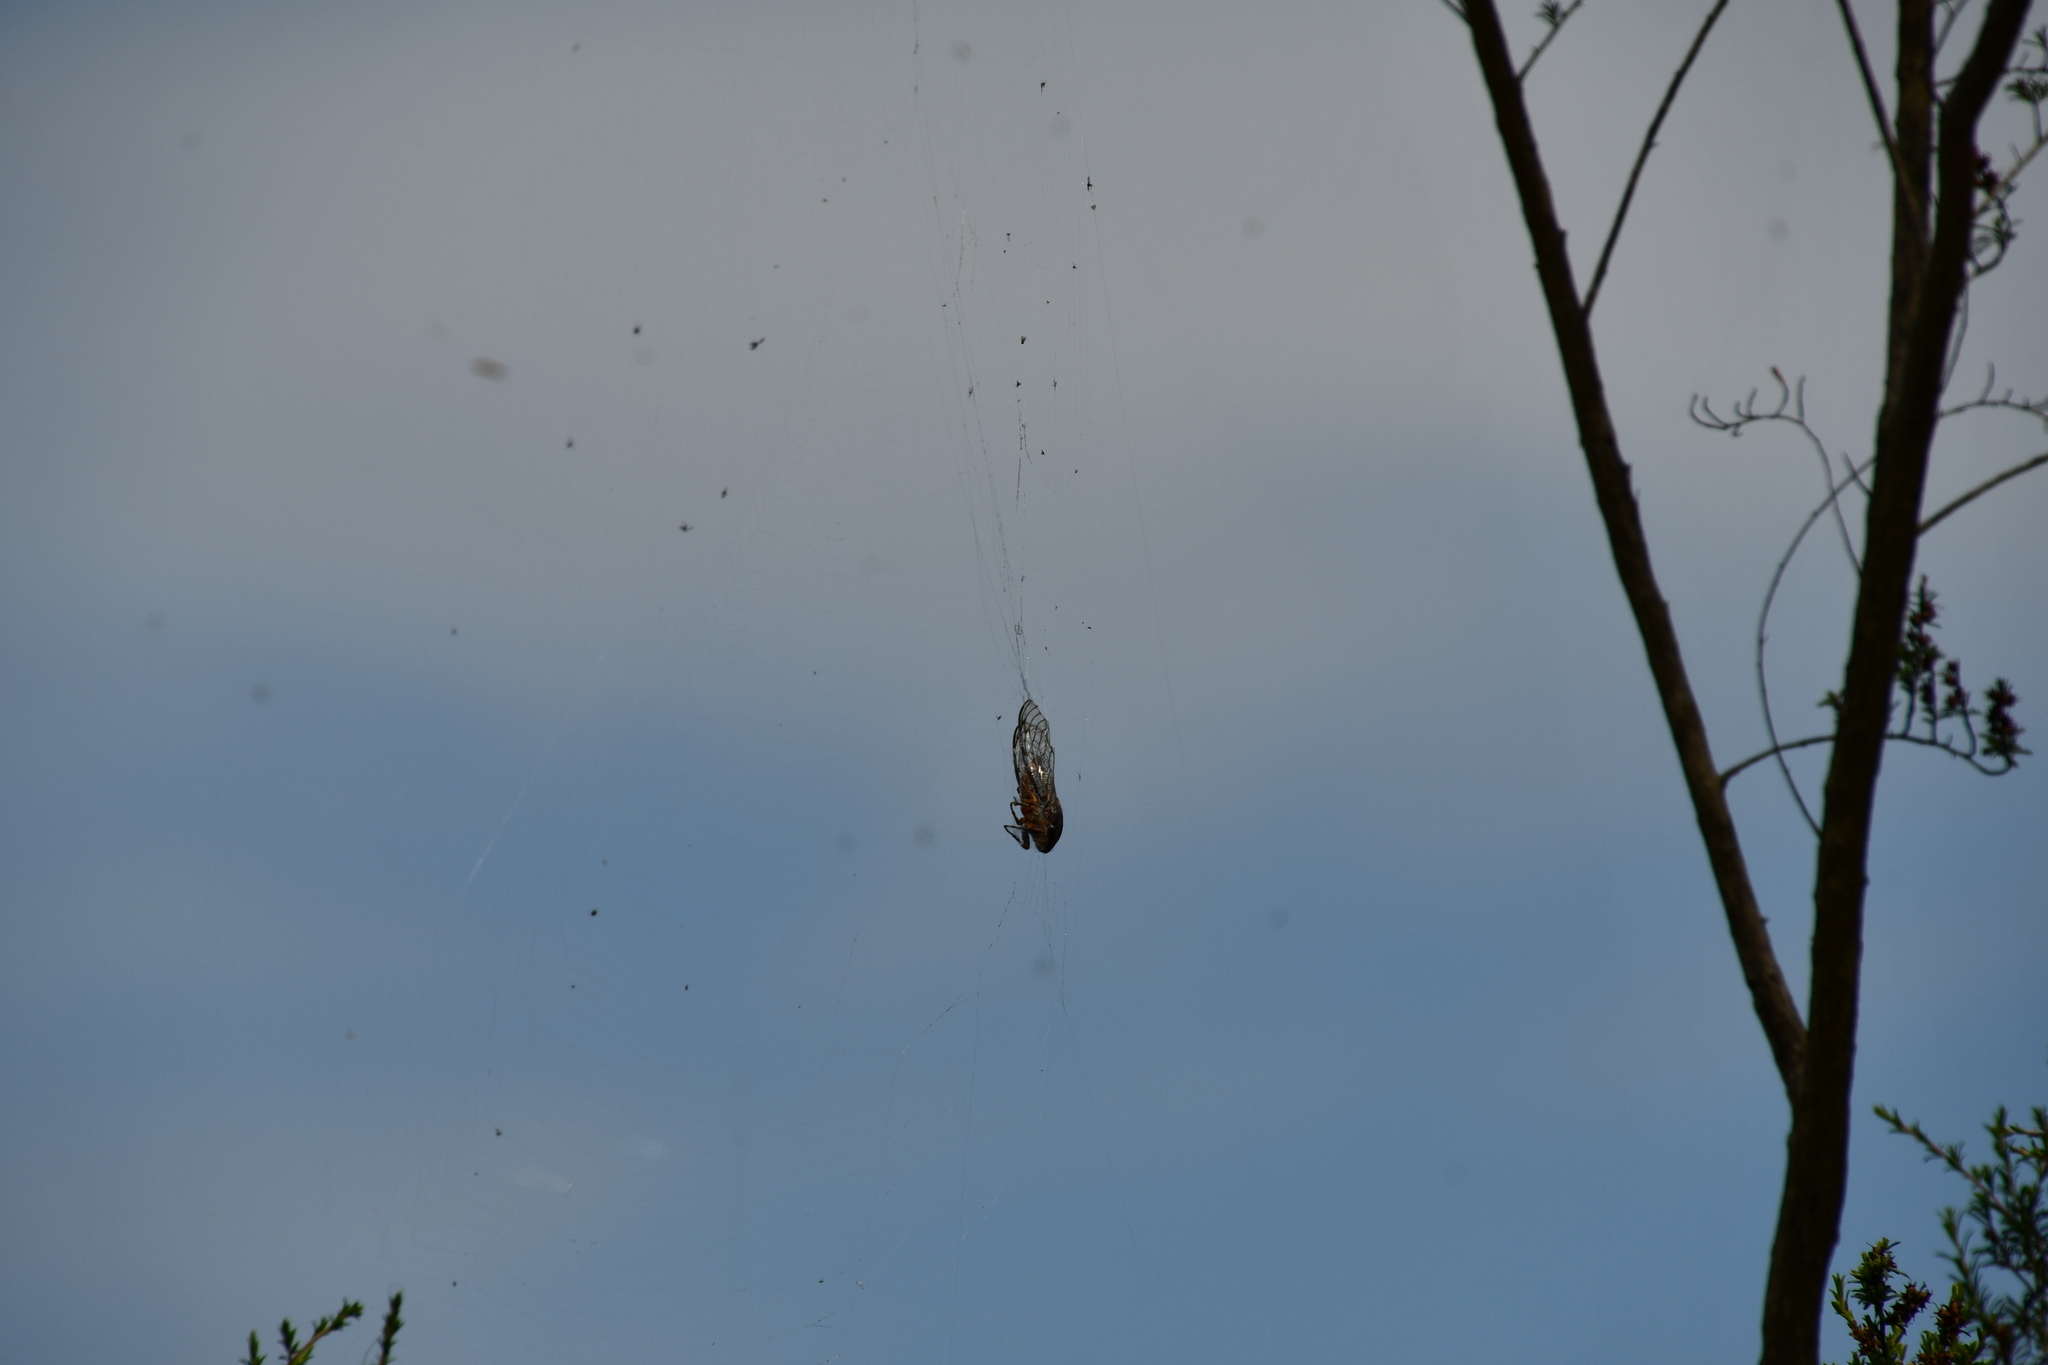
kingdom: Animalia
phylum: Arthropoda
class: Insecta
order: Hemiptera
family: Cicadidae
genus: Psaltoda
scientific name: Psaltoda plaga
